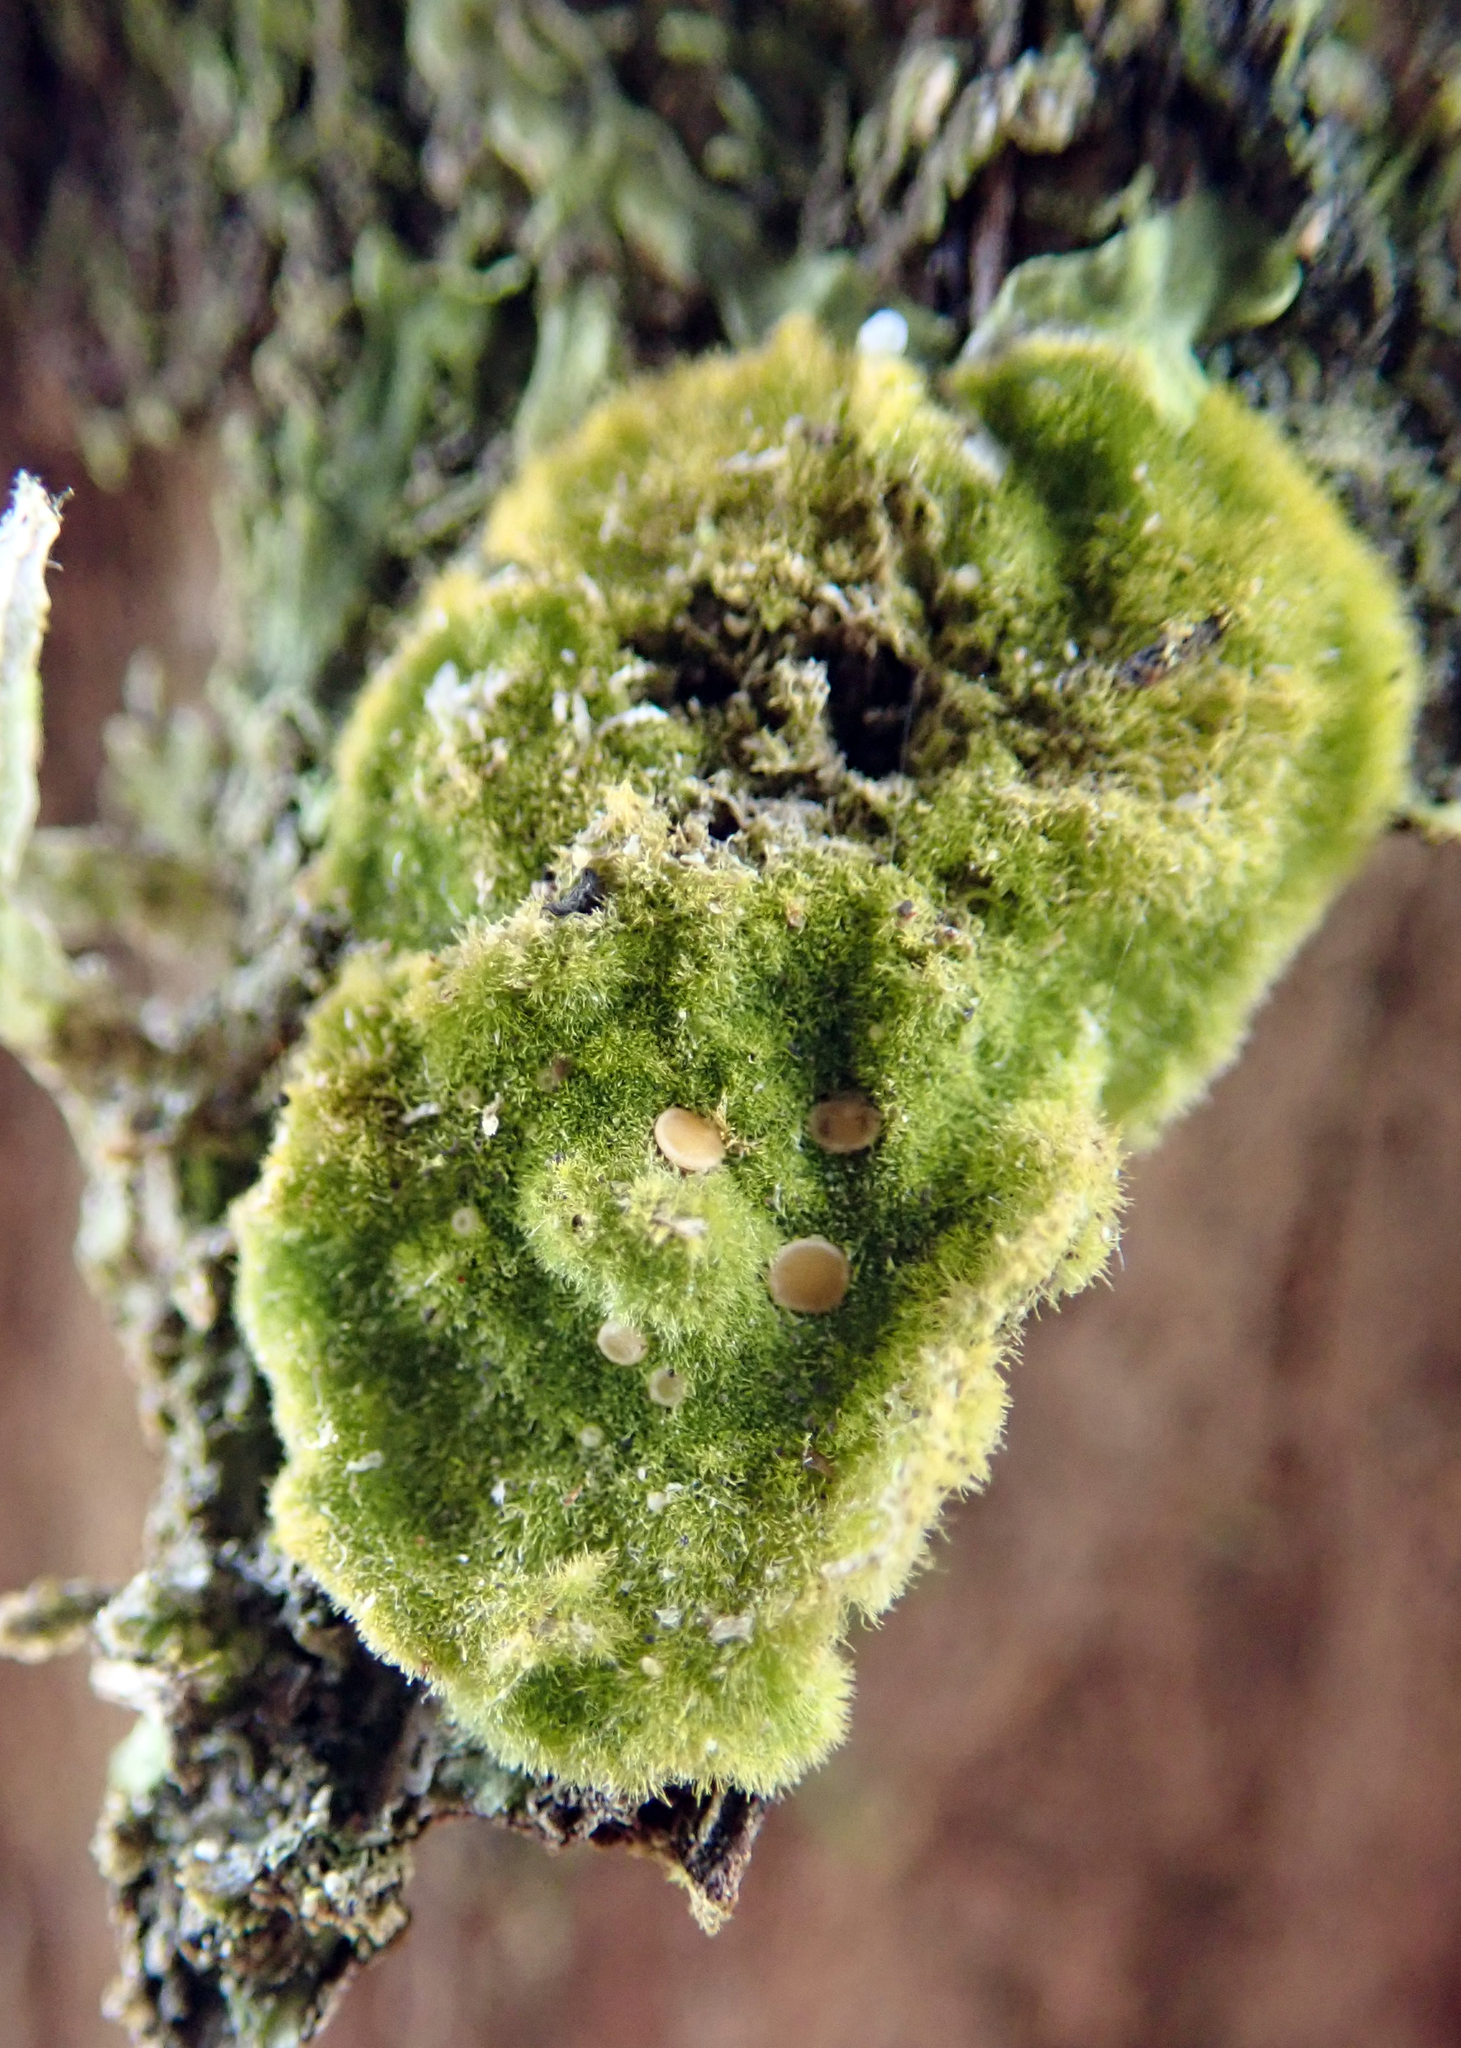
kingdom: Fungi
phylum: Ascomycota
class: Lecanoromycetes
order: Ostropales
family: Coenogoniaceae
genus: Coenogonium
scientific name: Coenogonium implexum
